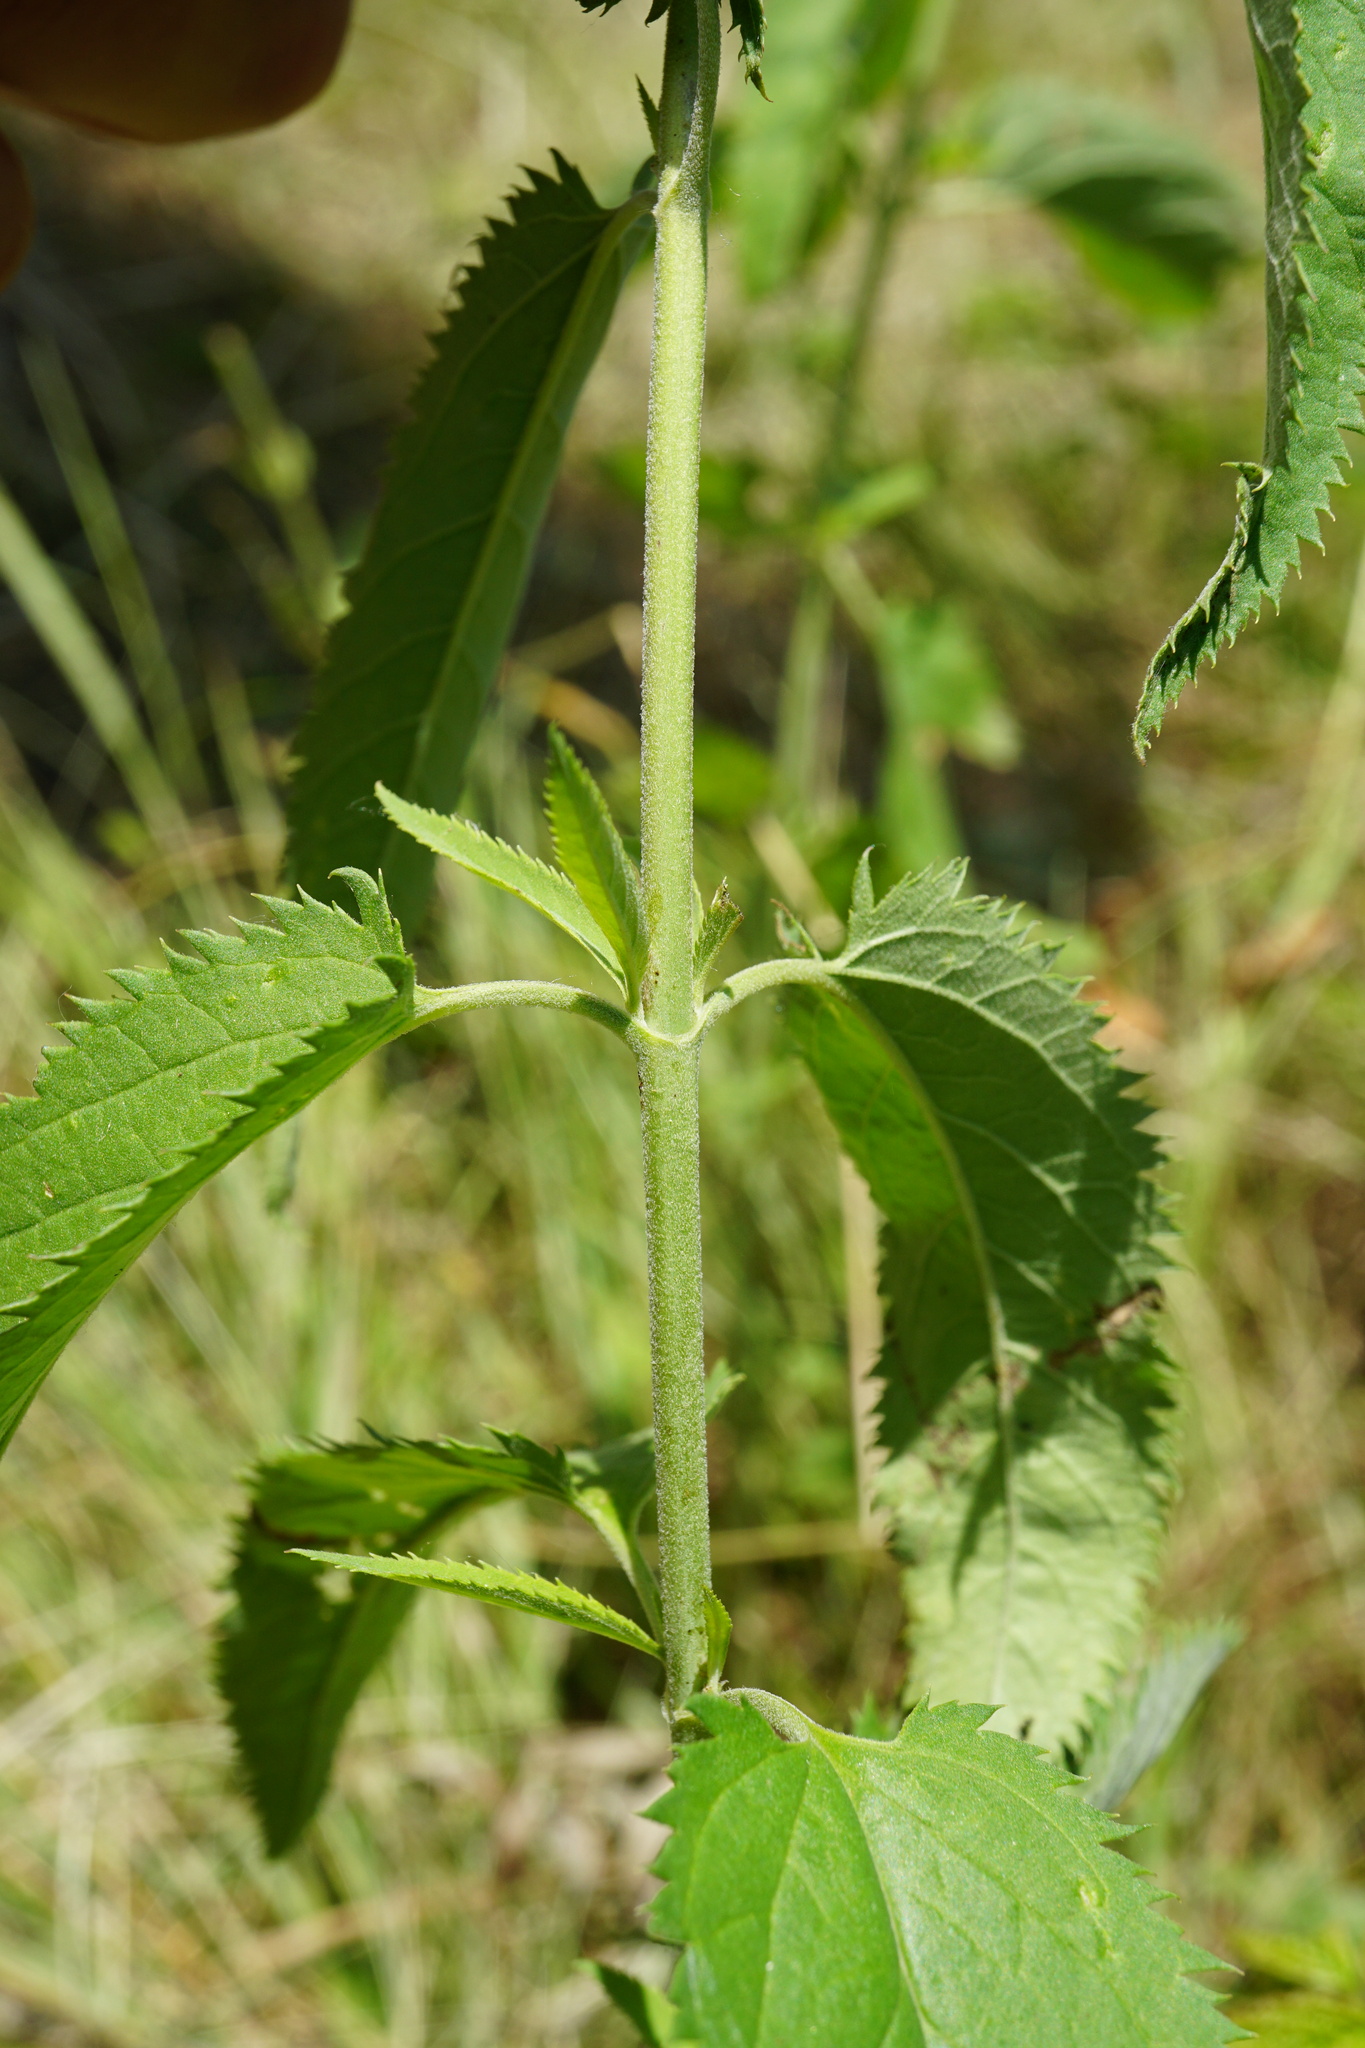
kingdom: Plantae
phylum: Tracheophyta
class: Magnoliopsida
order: Lamiales
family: Plantaginaceae
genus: Veronica
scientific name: Veronica longifolia
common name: Garden speedwell
